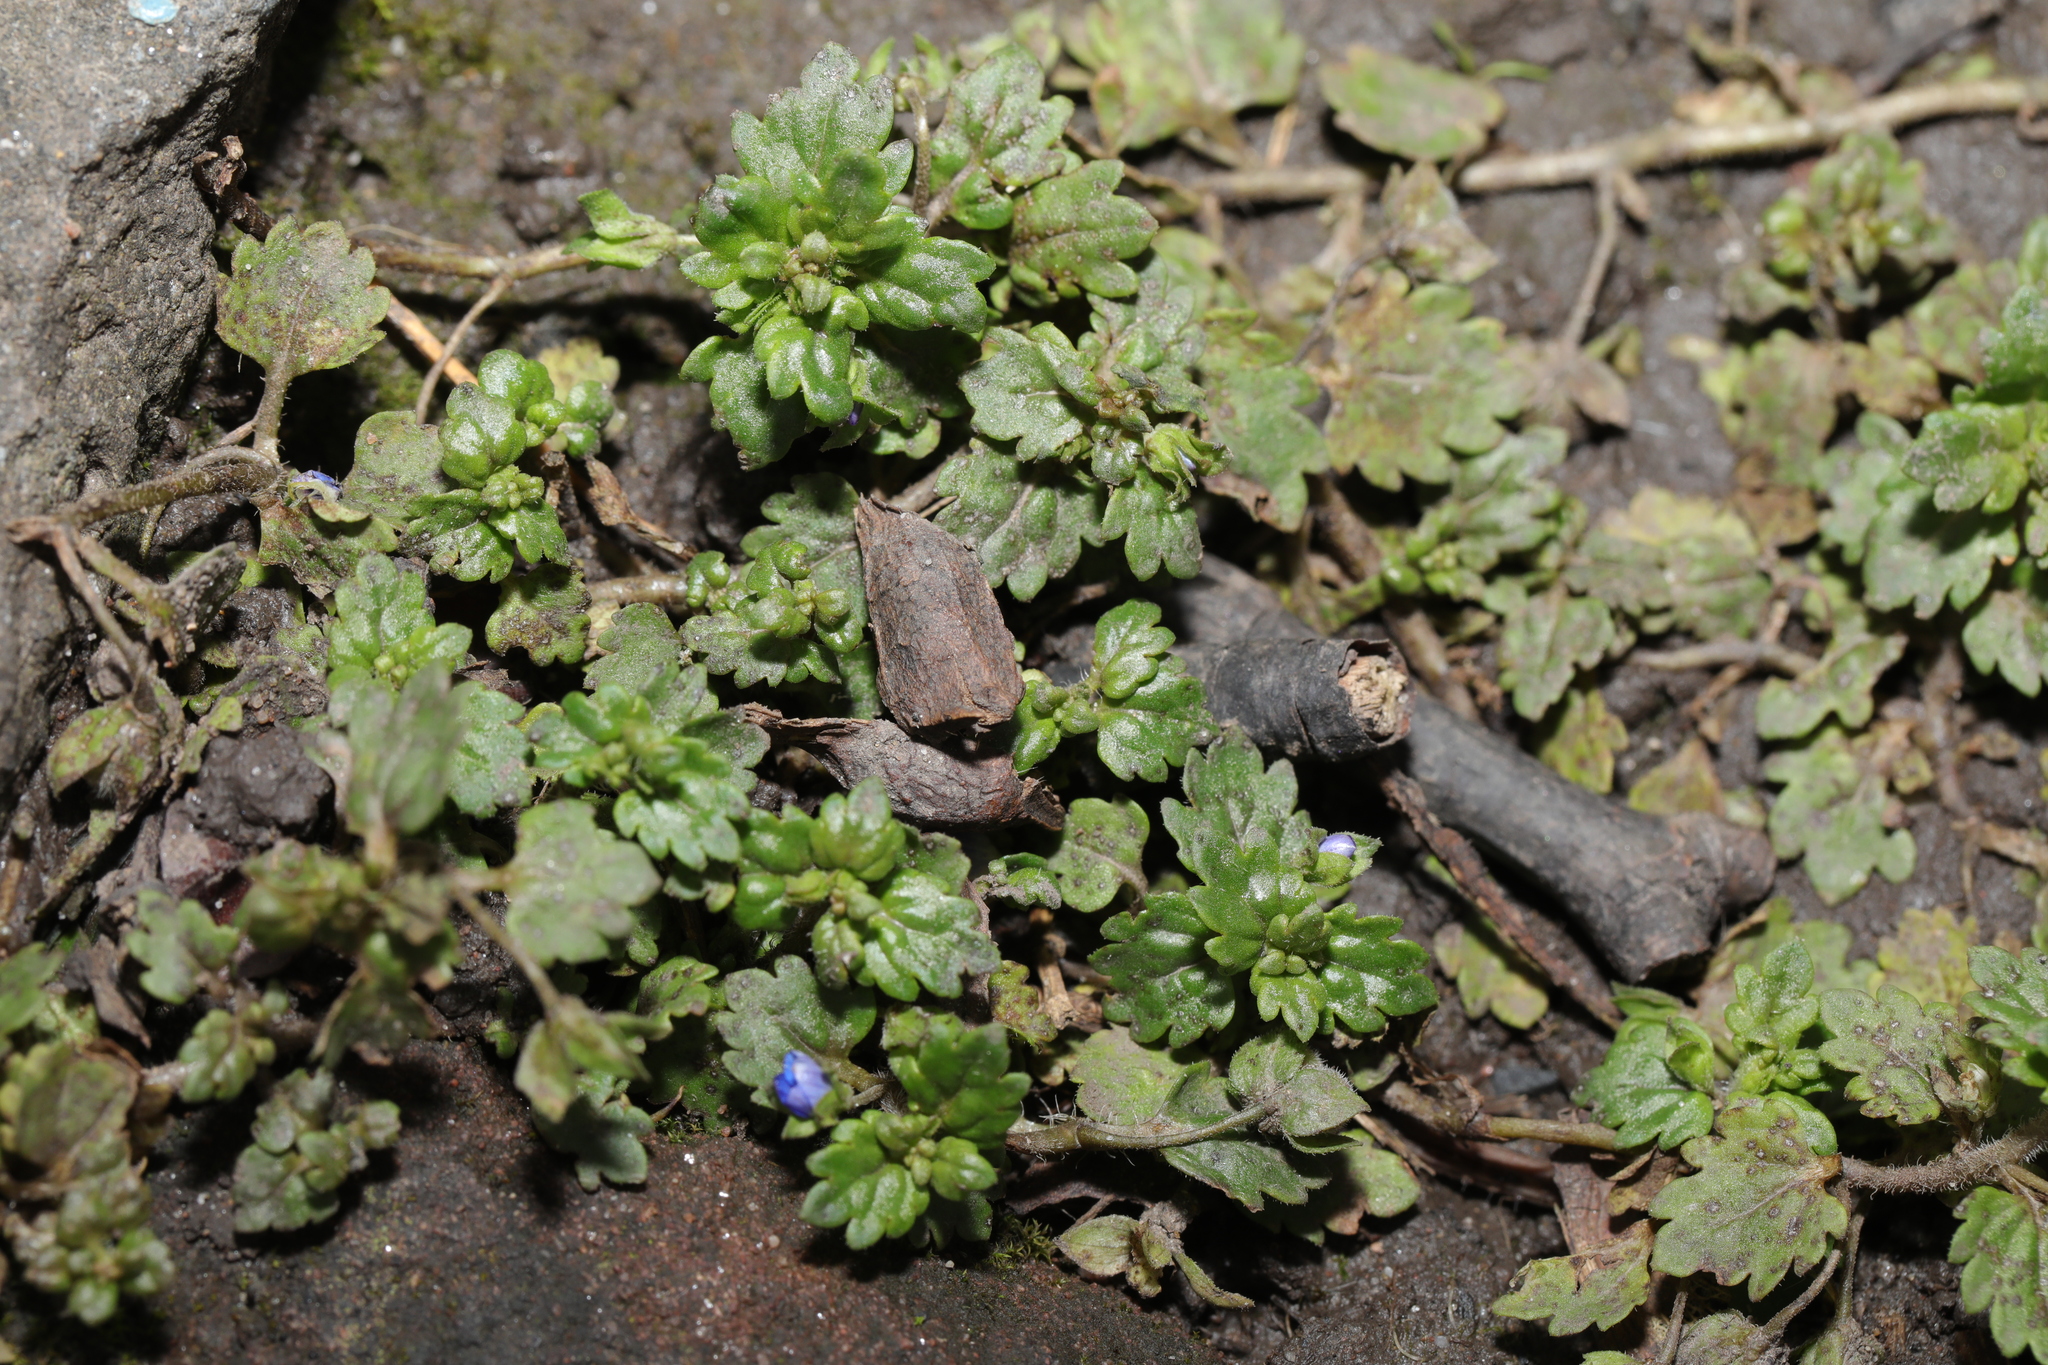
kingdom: Plantae
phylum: Tracheophyta
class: Magnoliopsida
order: Lamiales
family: Plantaginaceae
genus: Veronica
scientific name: Veronica polita
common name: Grey field-speedwell
